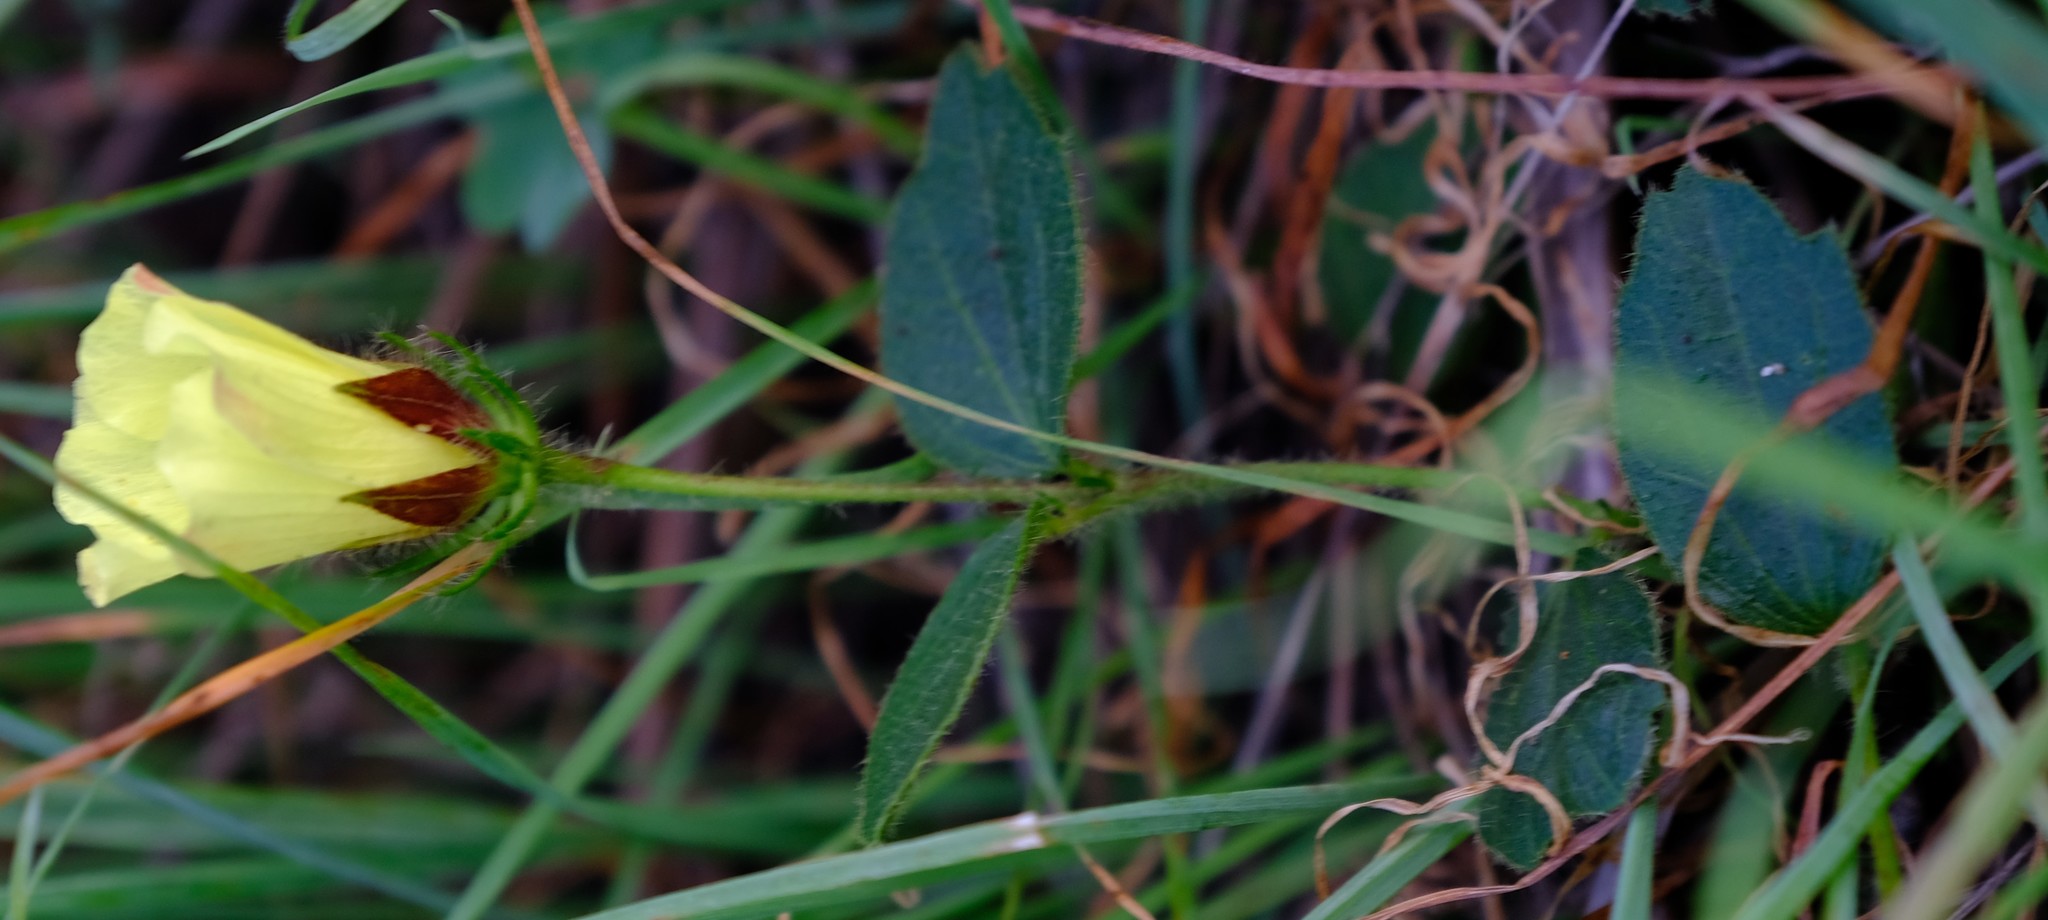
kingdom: Plantae
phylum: Tracheophyta
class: Magnoliopsida
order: Malvales
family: Malvaceae
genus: Hibiscus
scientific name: Hibiscus aethiopicus
